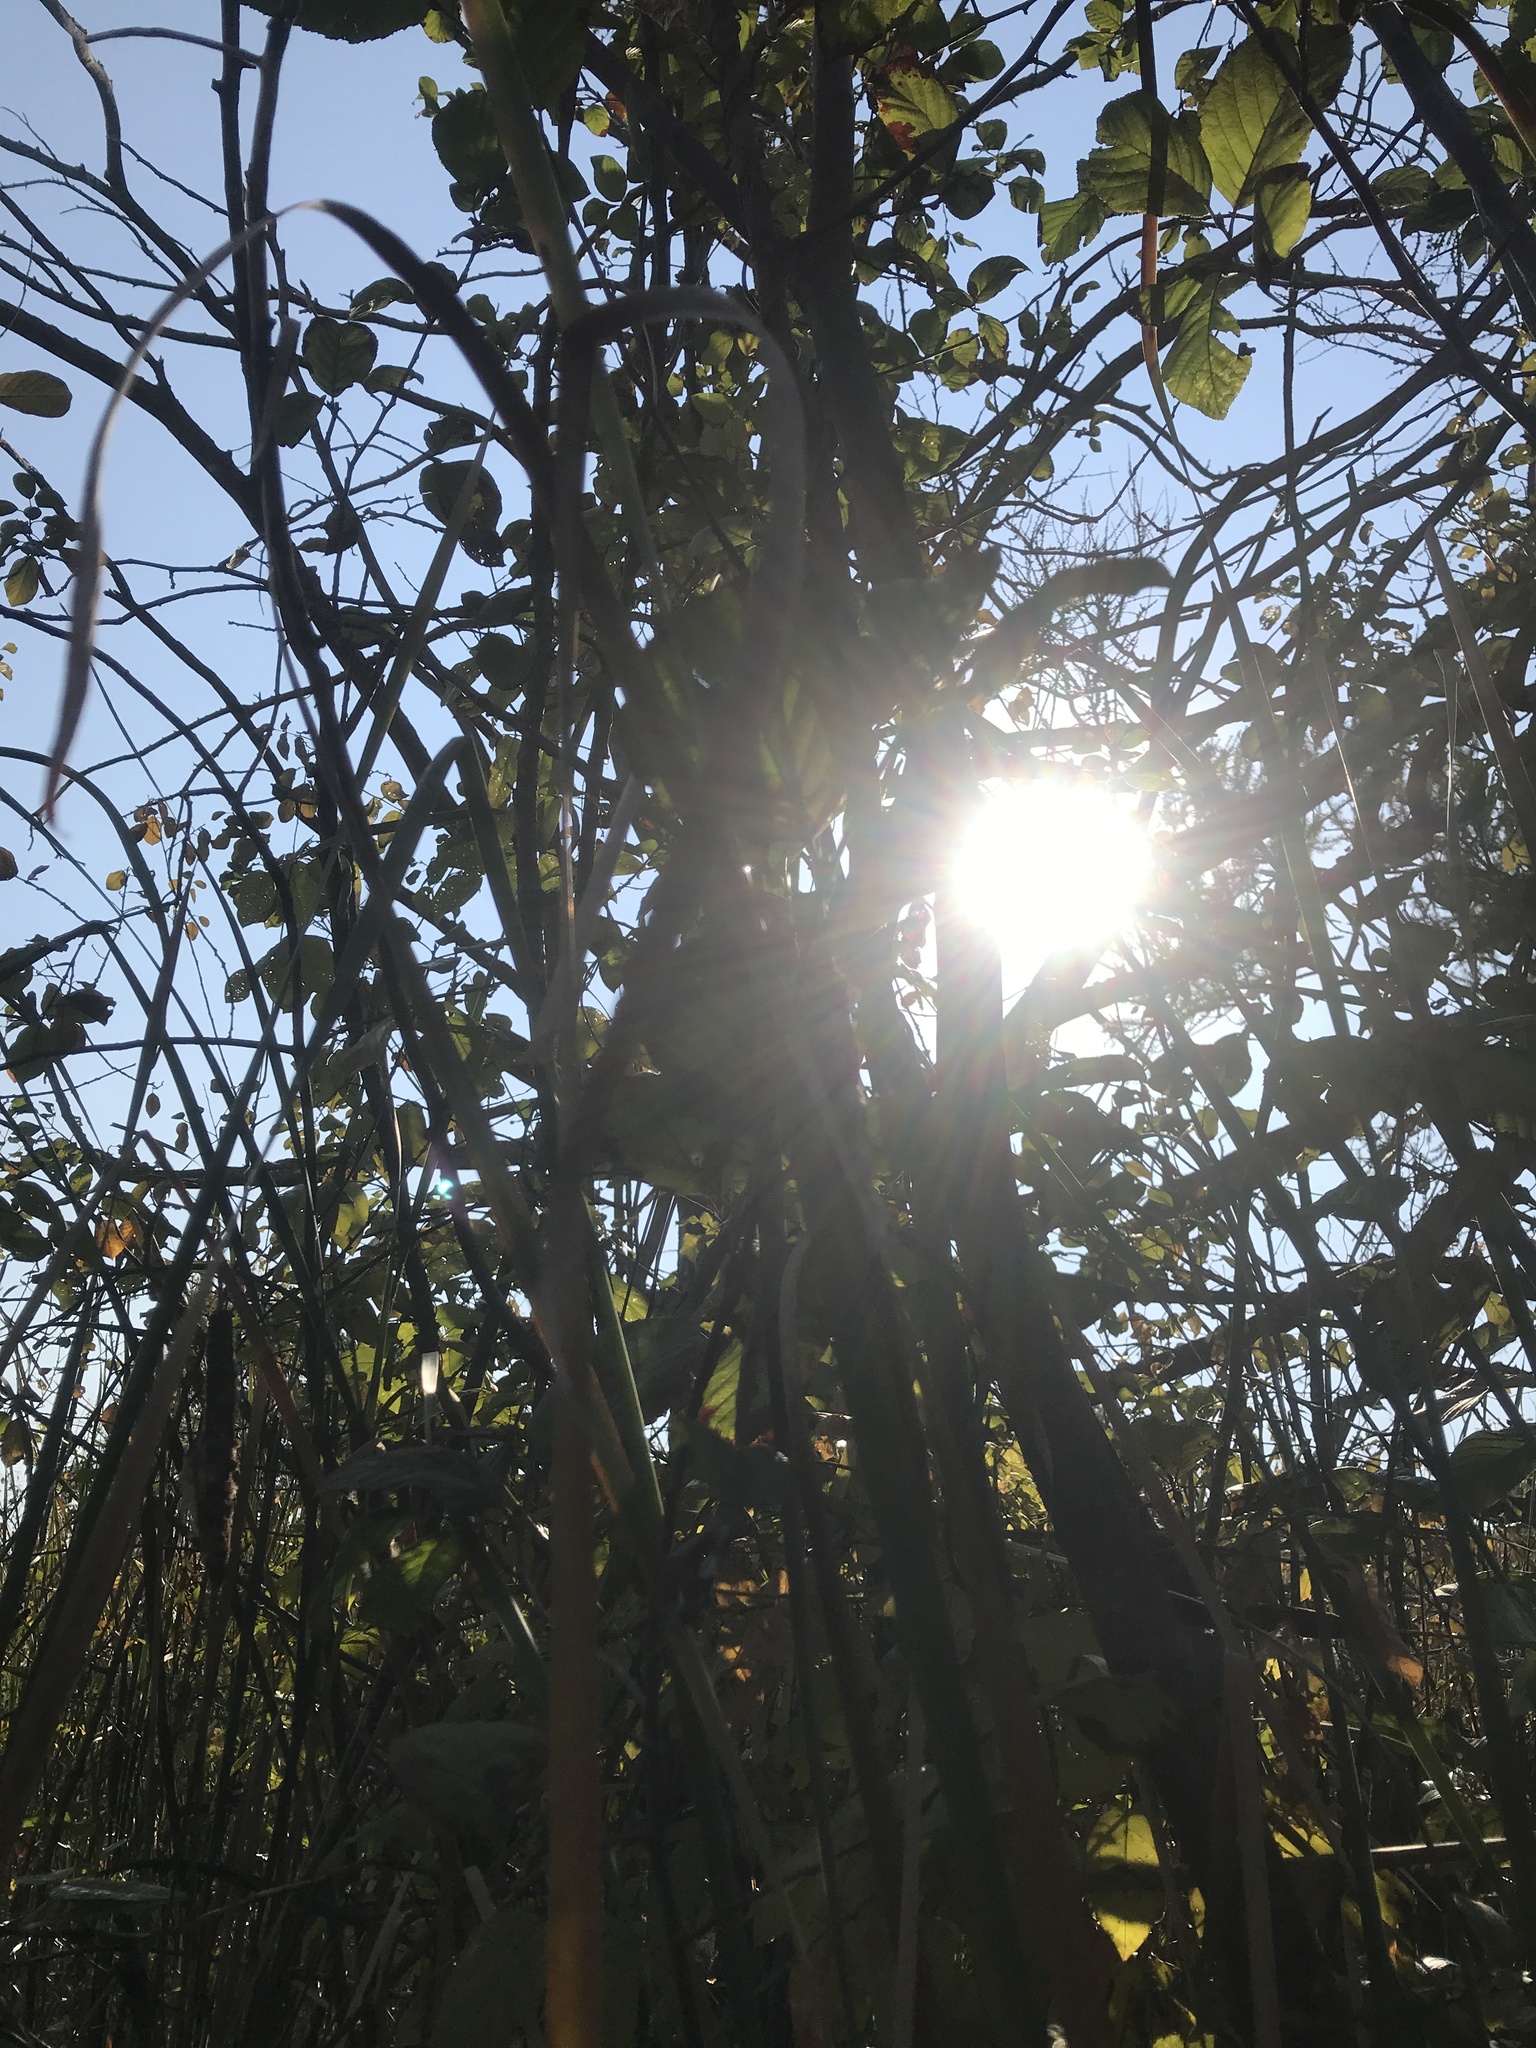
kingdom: Plantae
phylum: Tracheophyta
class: Pinopsida
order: Pinales
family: Pinaceae
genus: Larix
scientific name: Larix laricina
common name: American larch
